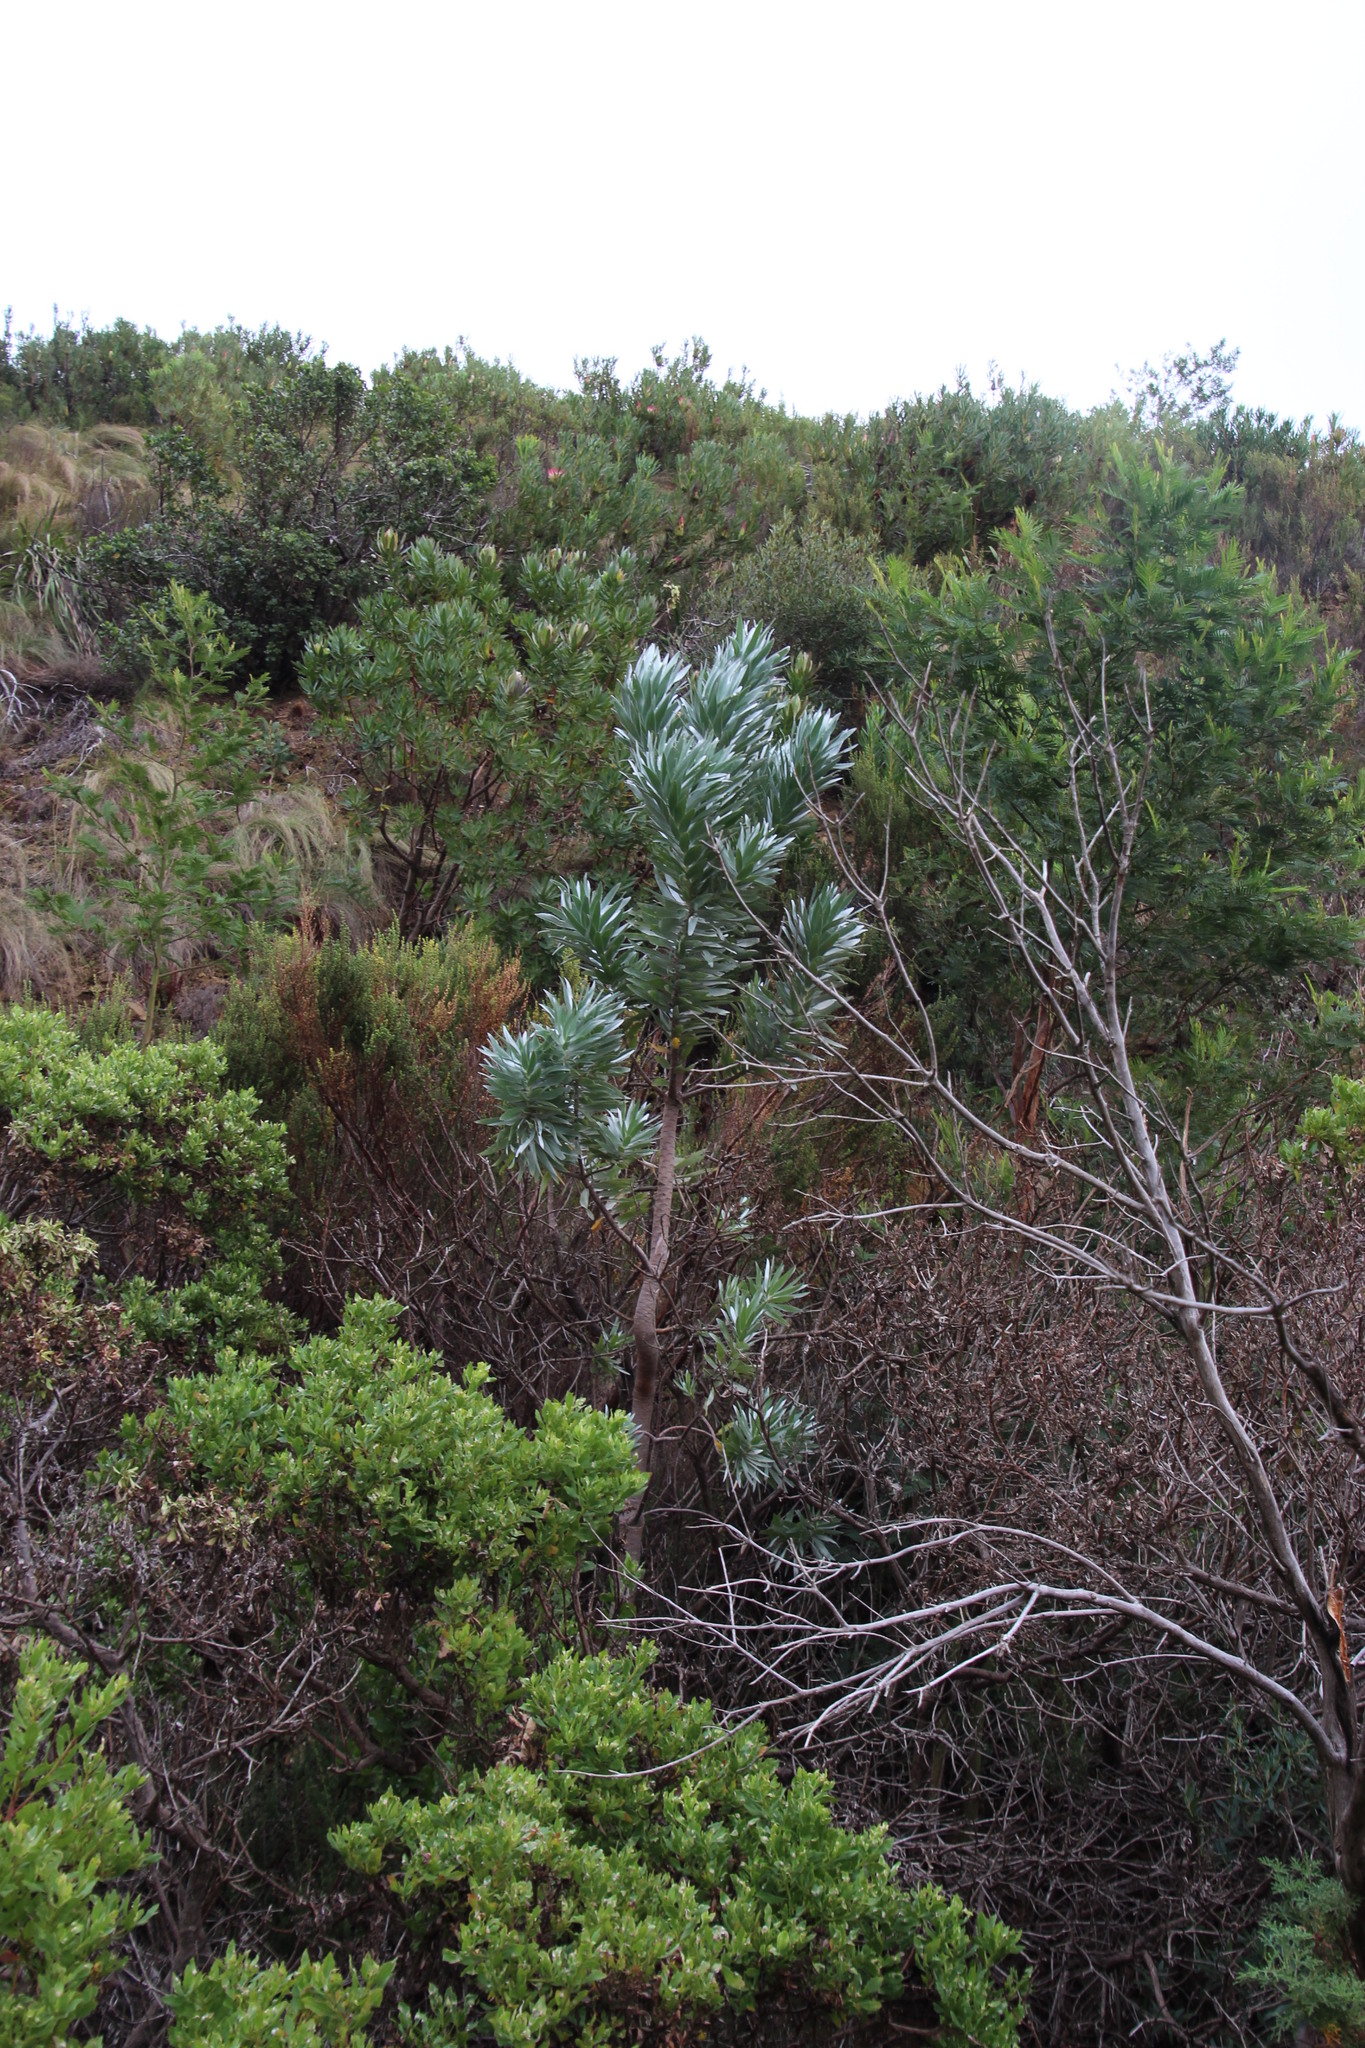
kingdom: Plantae
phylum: Tracheophyta
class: Magnoliopsida
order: Proteales
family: Proteaceae
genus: Leucadendron
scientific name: Leucadendron argenteum
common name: Cape silver tree
